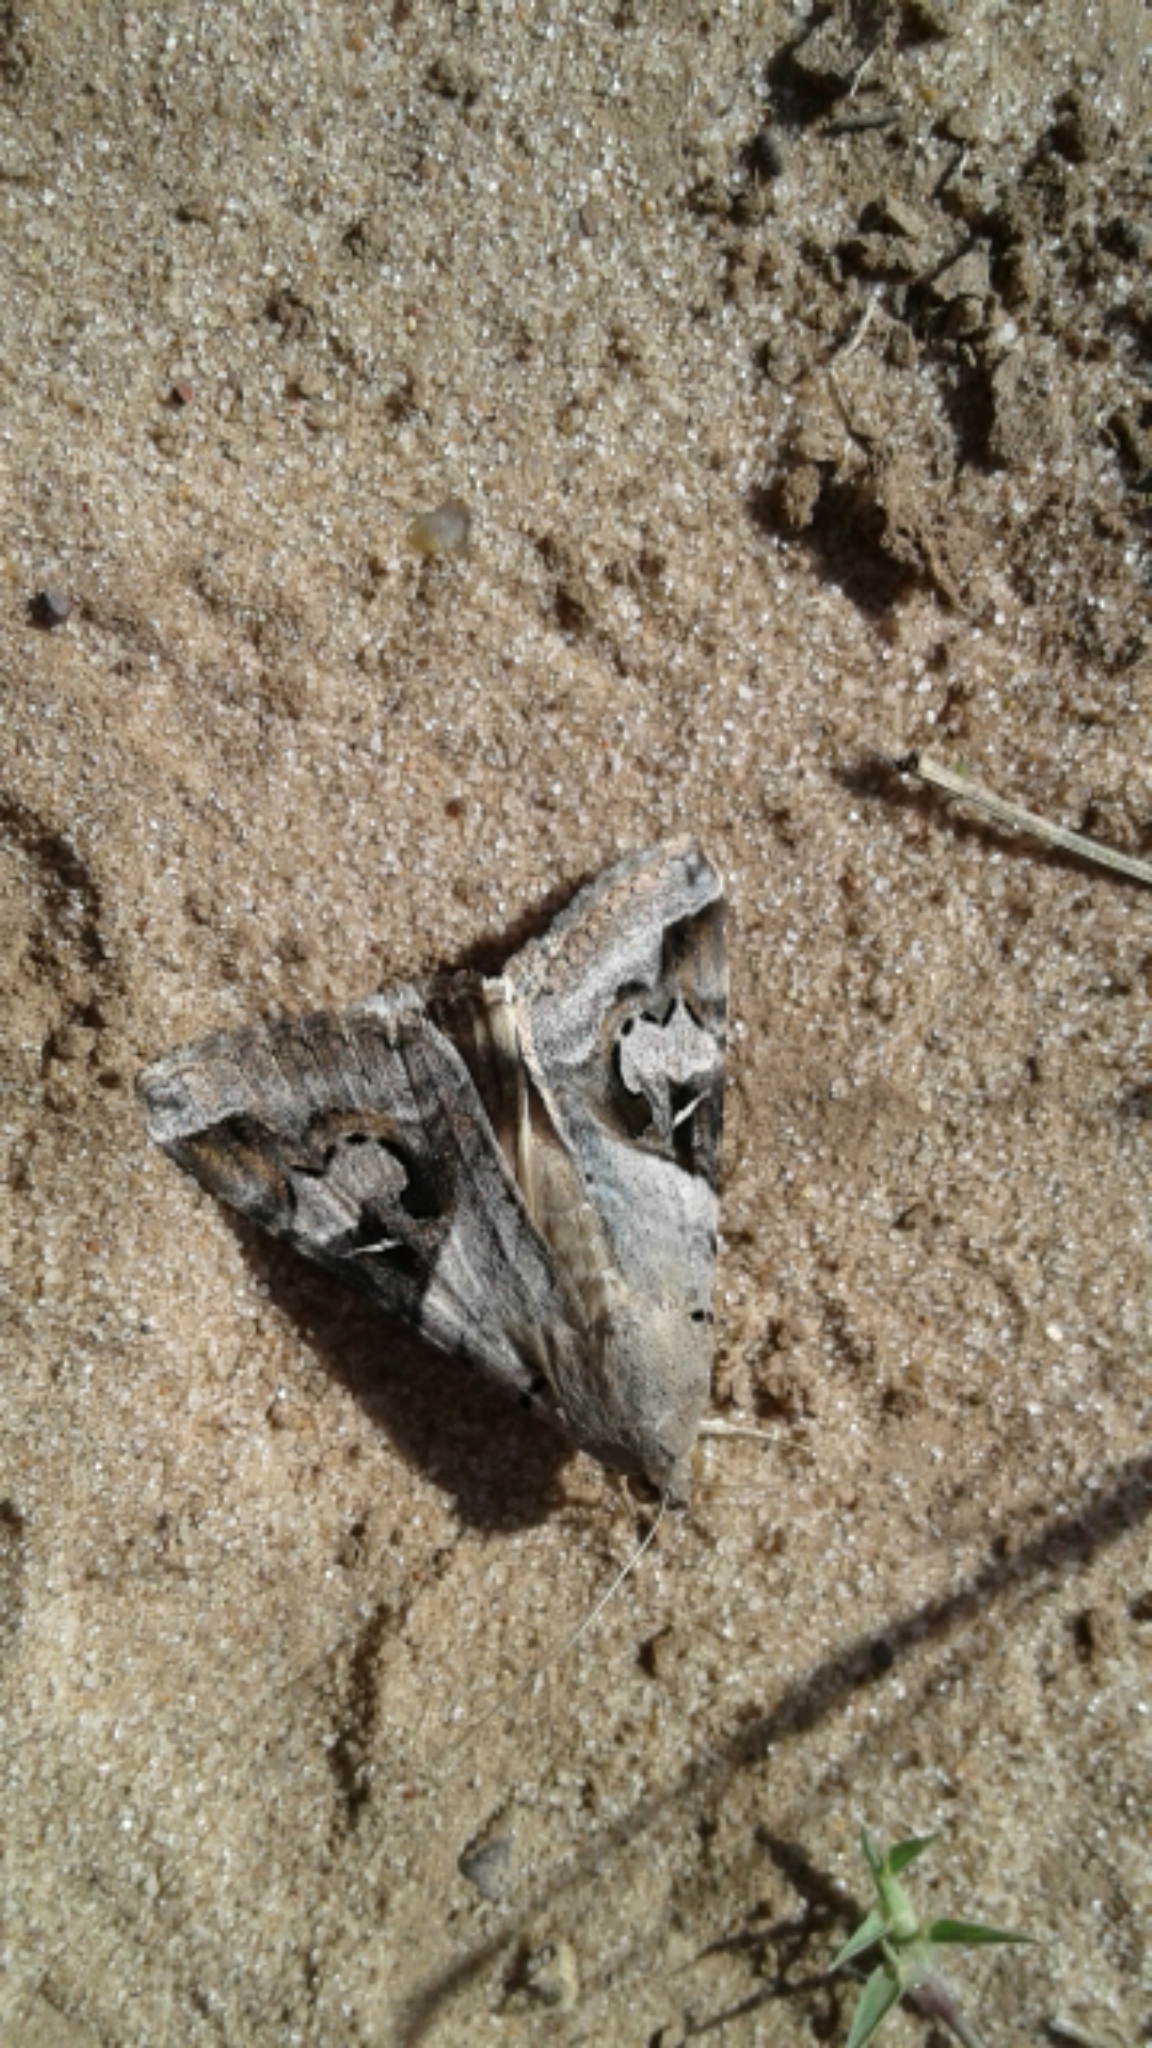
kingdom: Animalia
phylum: Arthropoda
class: Insecta
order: Lepidoptera
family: Erebidae
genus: Melipotis
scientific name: Melipotis indomita
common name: Moth
